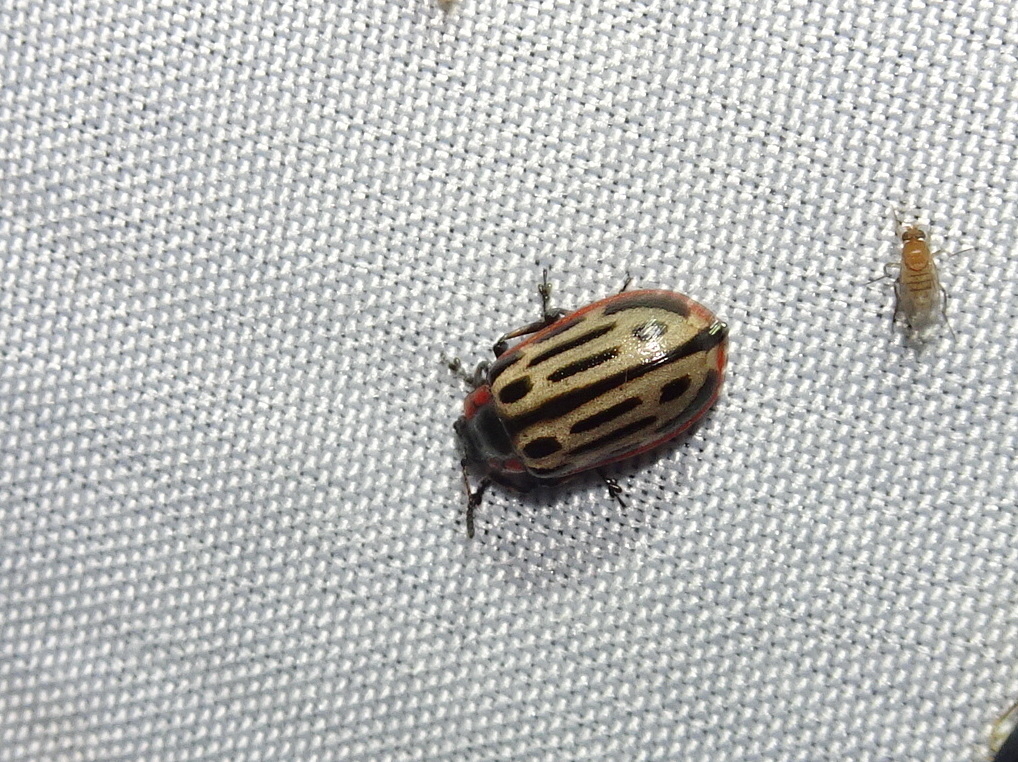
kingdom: Animalia
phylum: Arthropoda
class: Insecta
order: Coleoptera
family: Chrysomelidae
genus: Aethiopocassis
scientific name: Aethiopocassis scripta
